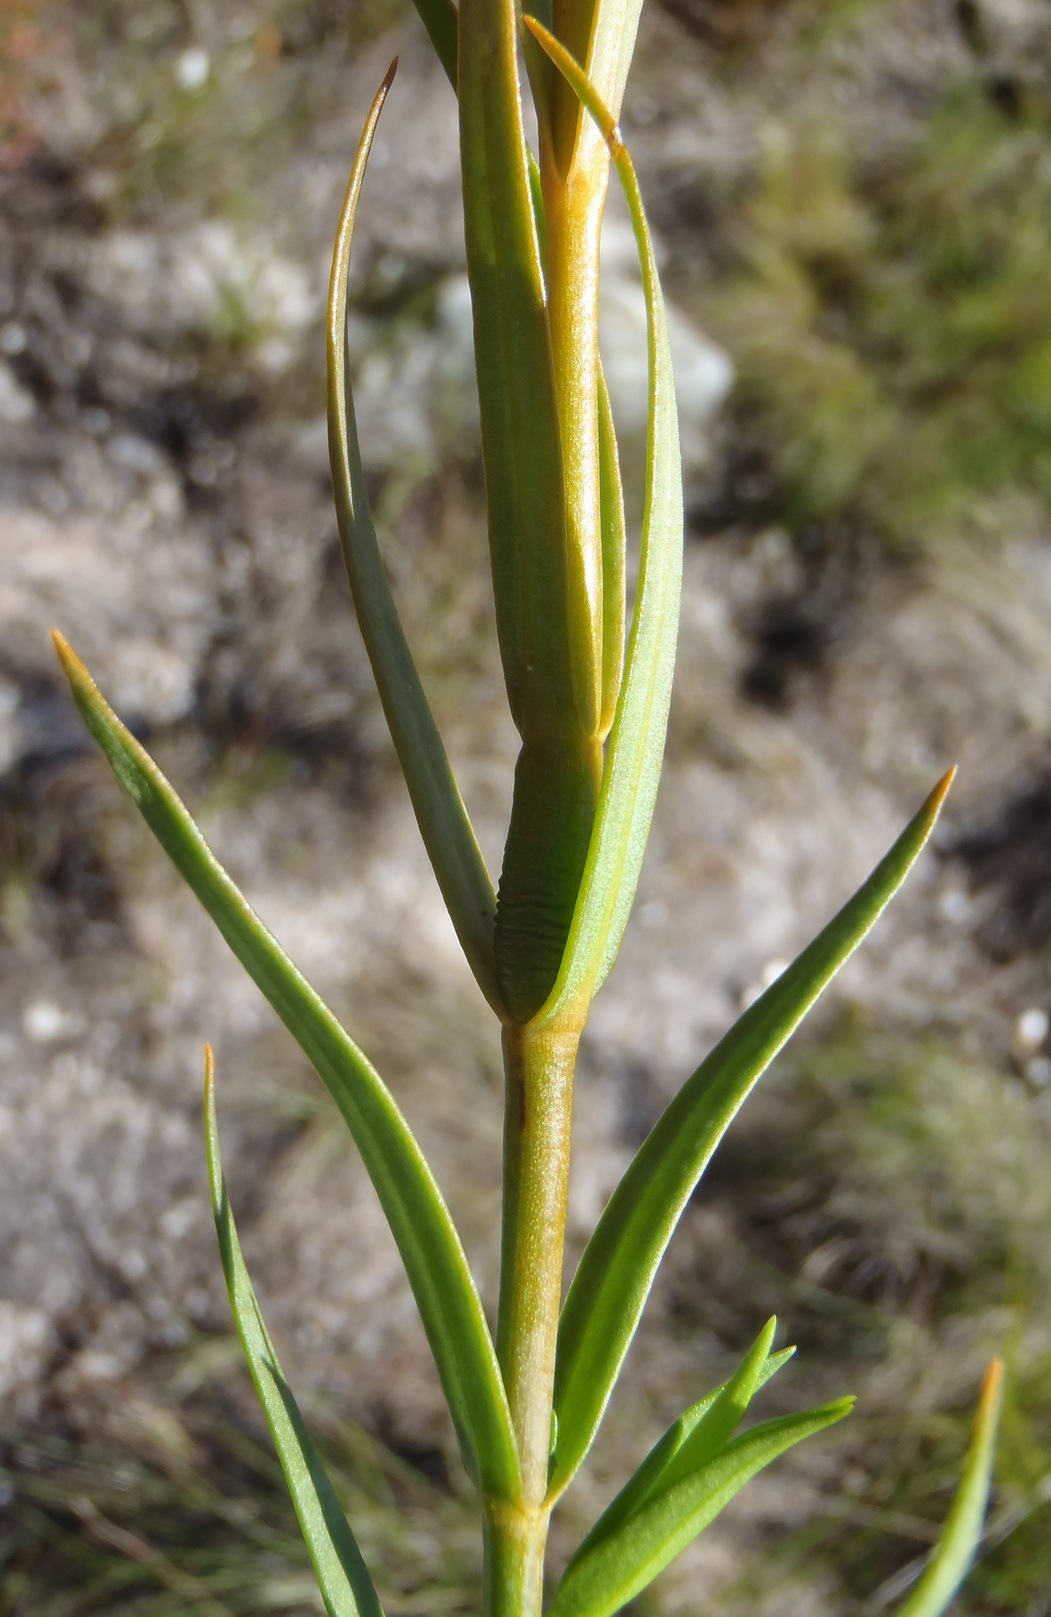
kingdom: Plantae
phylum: Tracheophyta
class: Magnoliopsida
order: Gentianales
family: Gentianaceae
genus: Chironia
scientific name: Chironia linoides
